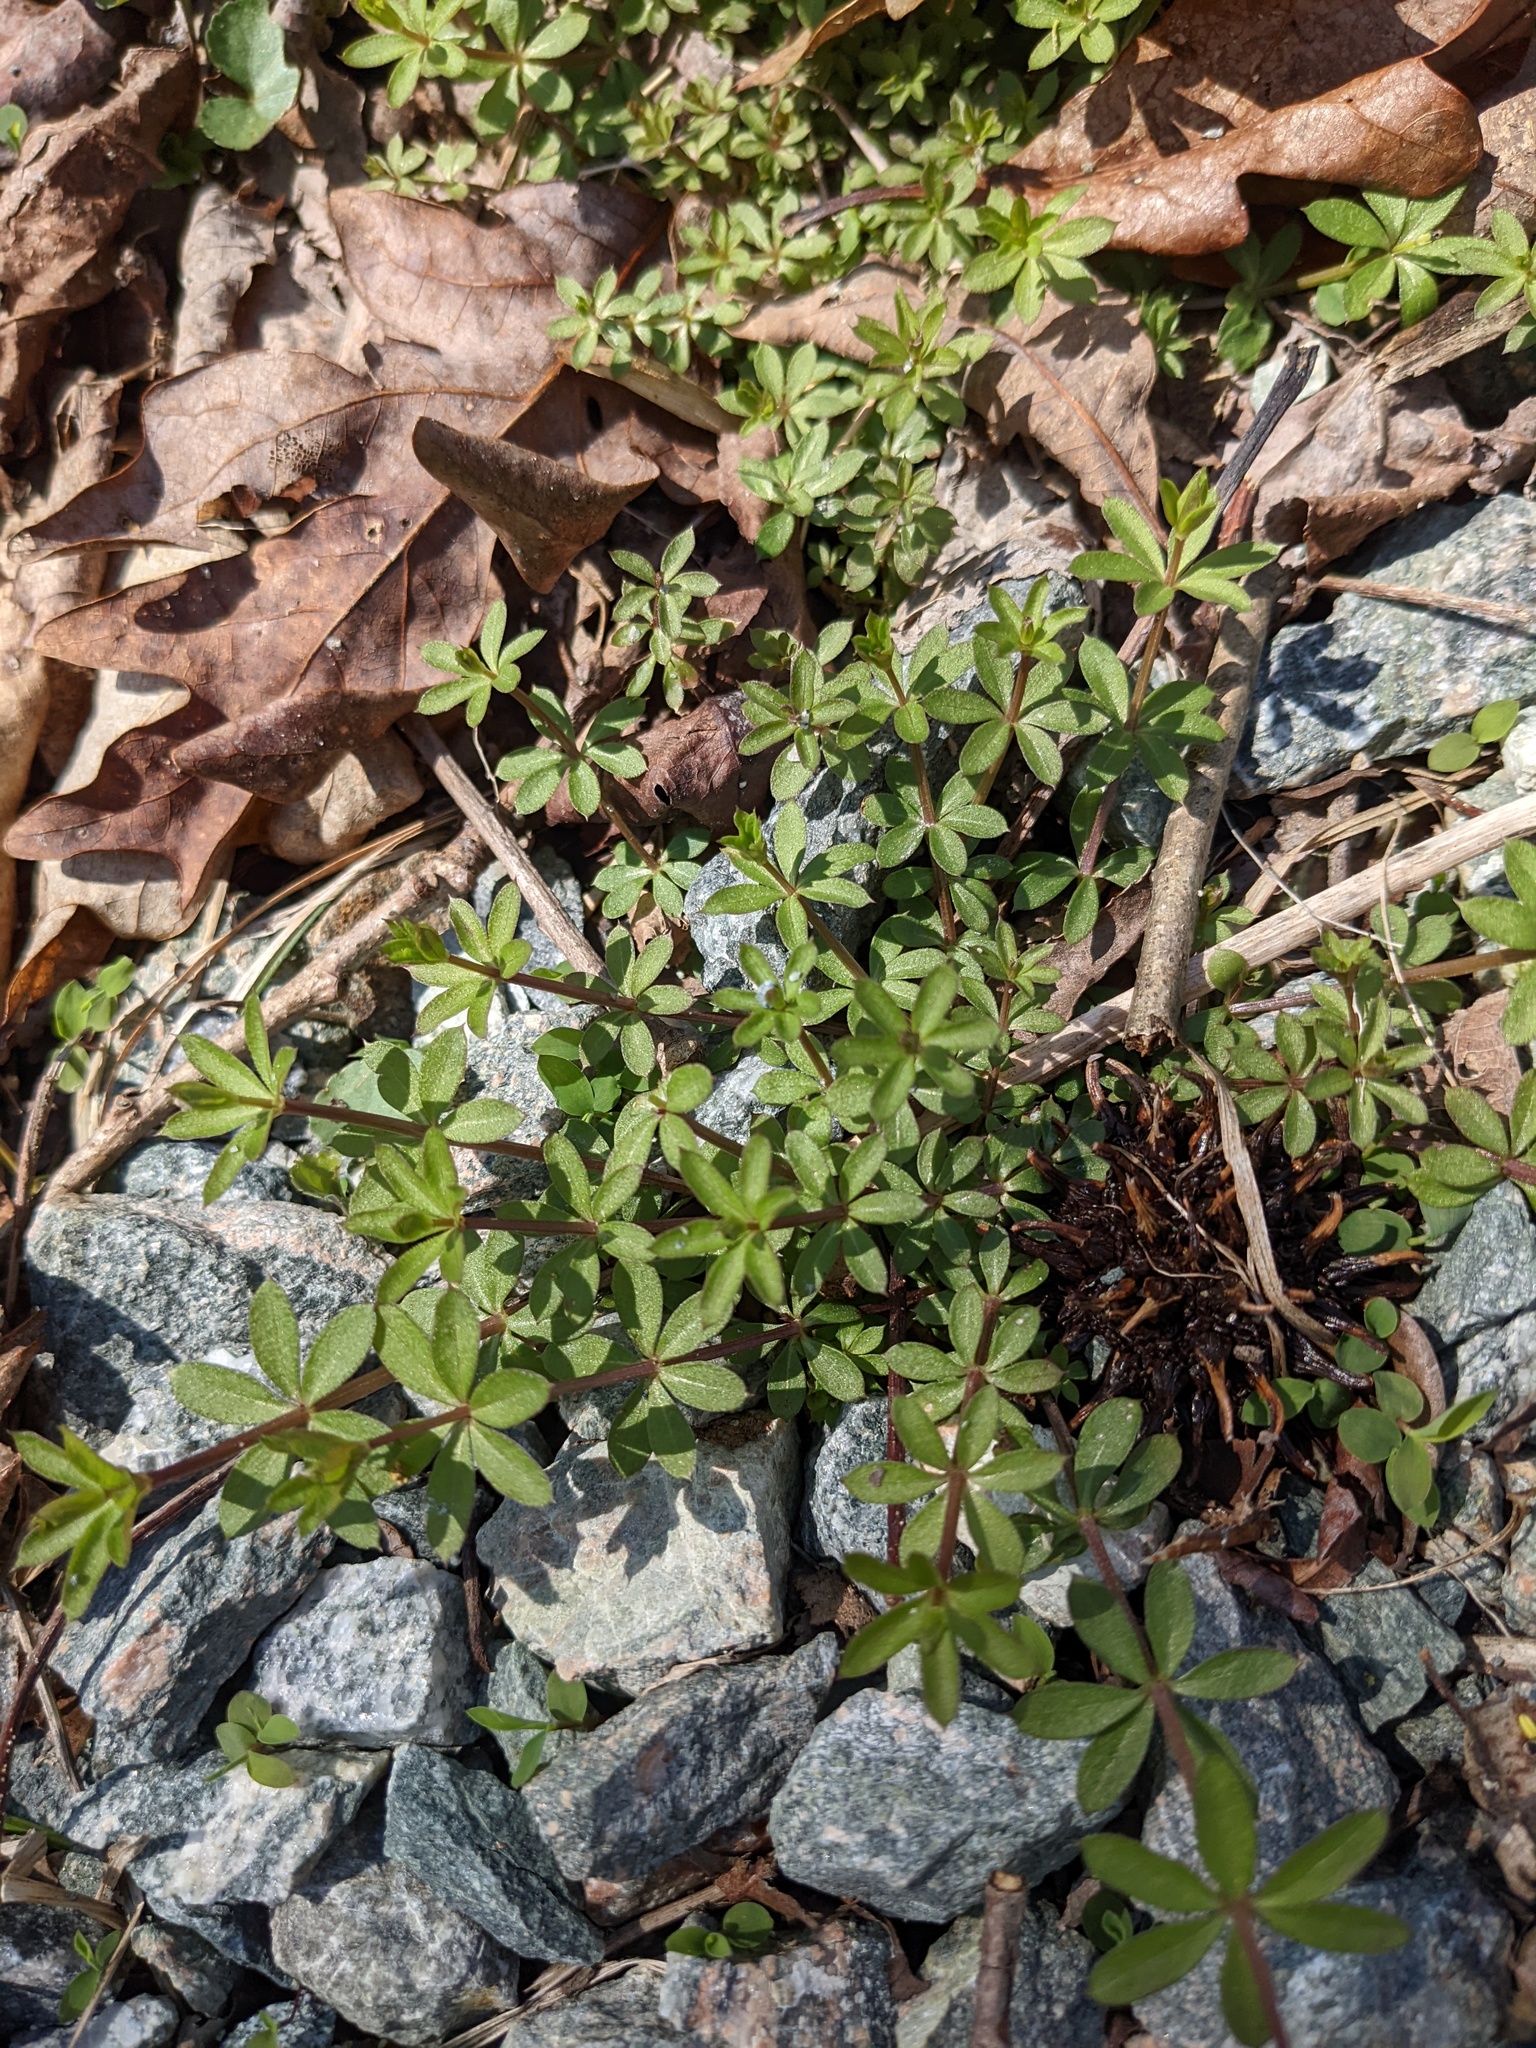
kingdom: Plantae
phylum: Tracheophyta
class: Magnoliopsida
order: Gentianales
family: Rubiaceae
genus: Galium
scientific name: Galium triflorum
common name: Fragrant bedstraw
